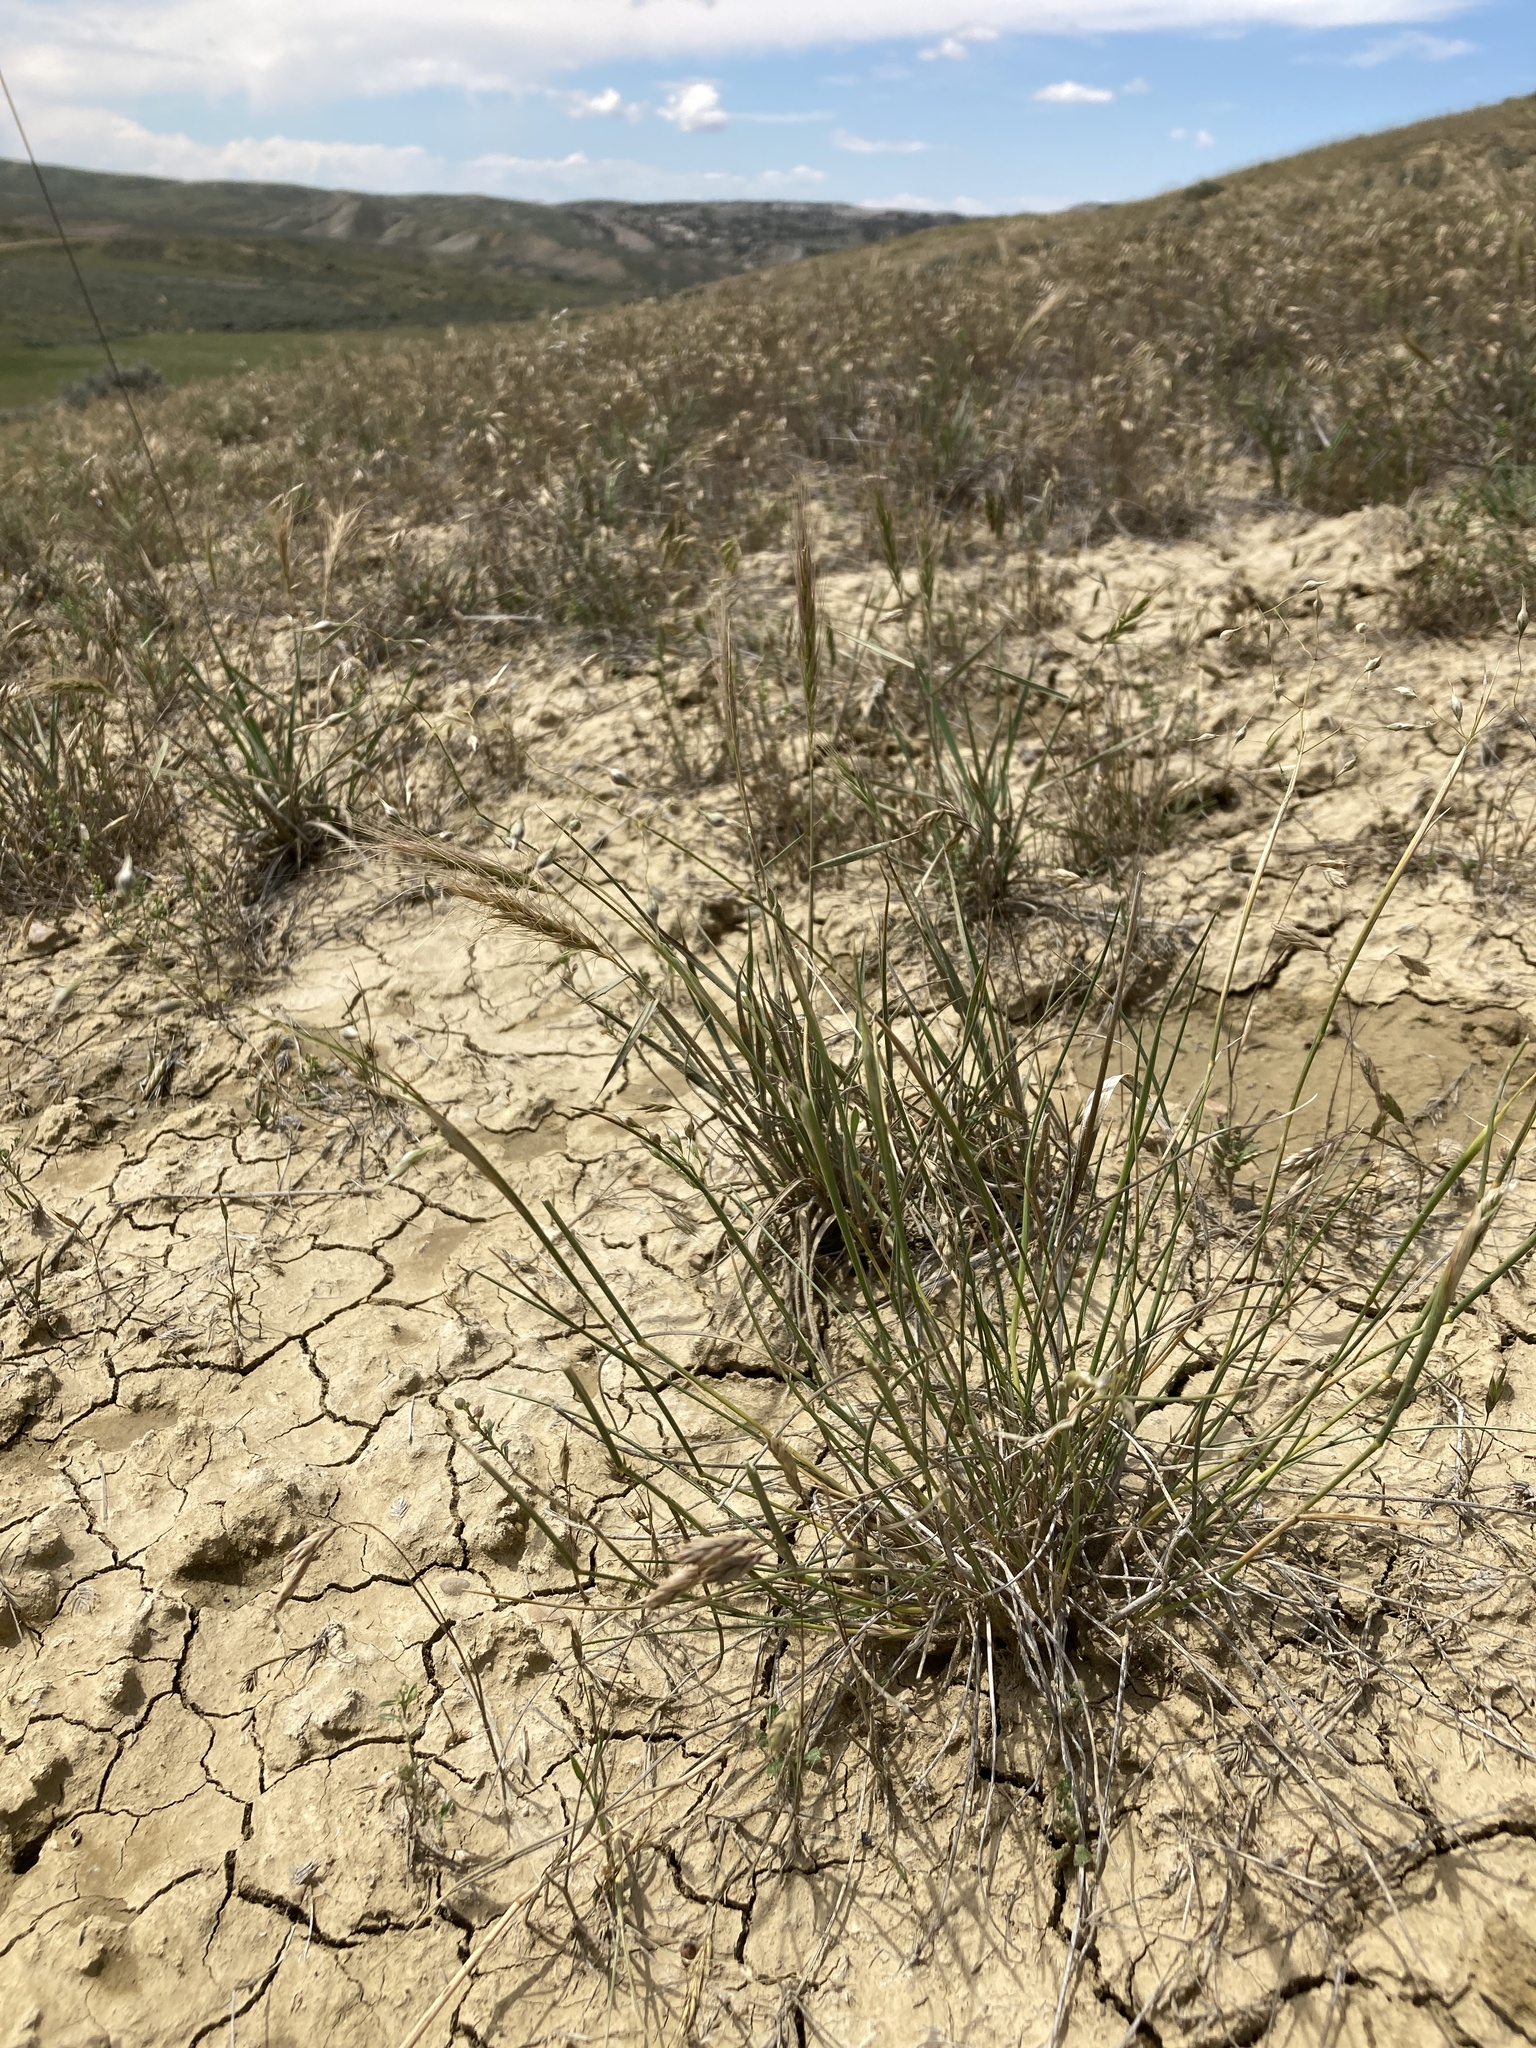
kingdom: Plantae
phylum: Tracheophyta
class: Liliopsida
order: Poales
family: Poaceae
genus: Eriocoma
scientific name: Eriocoma hymenoides
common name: Indian mountain ricegrass
